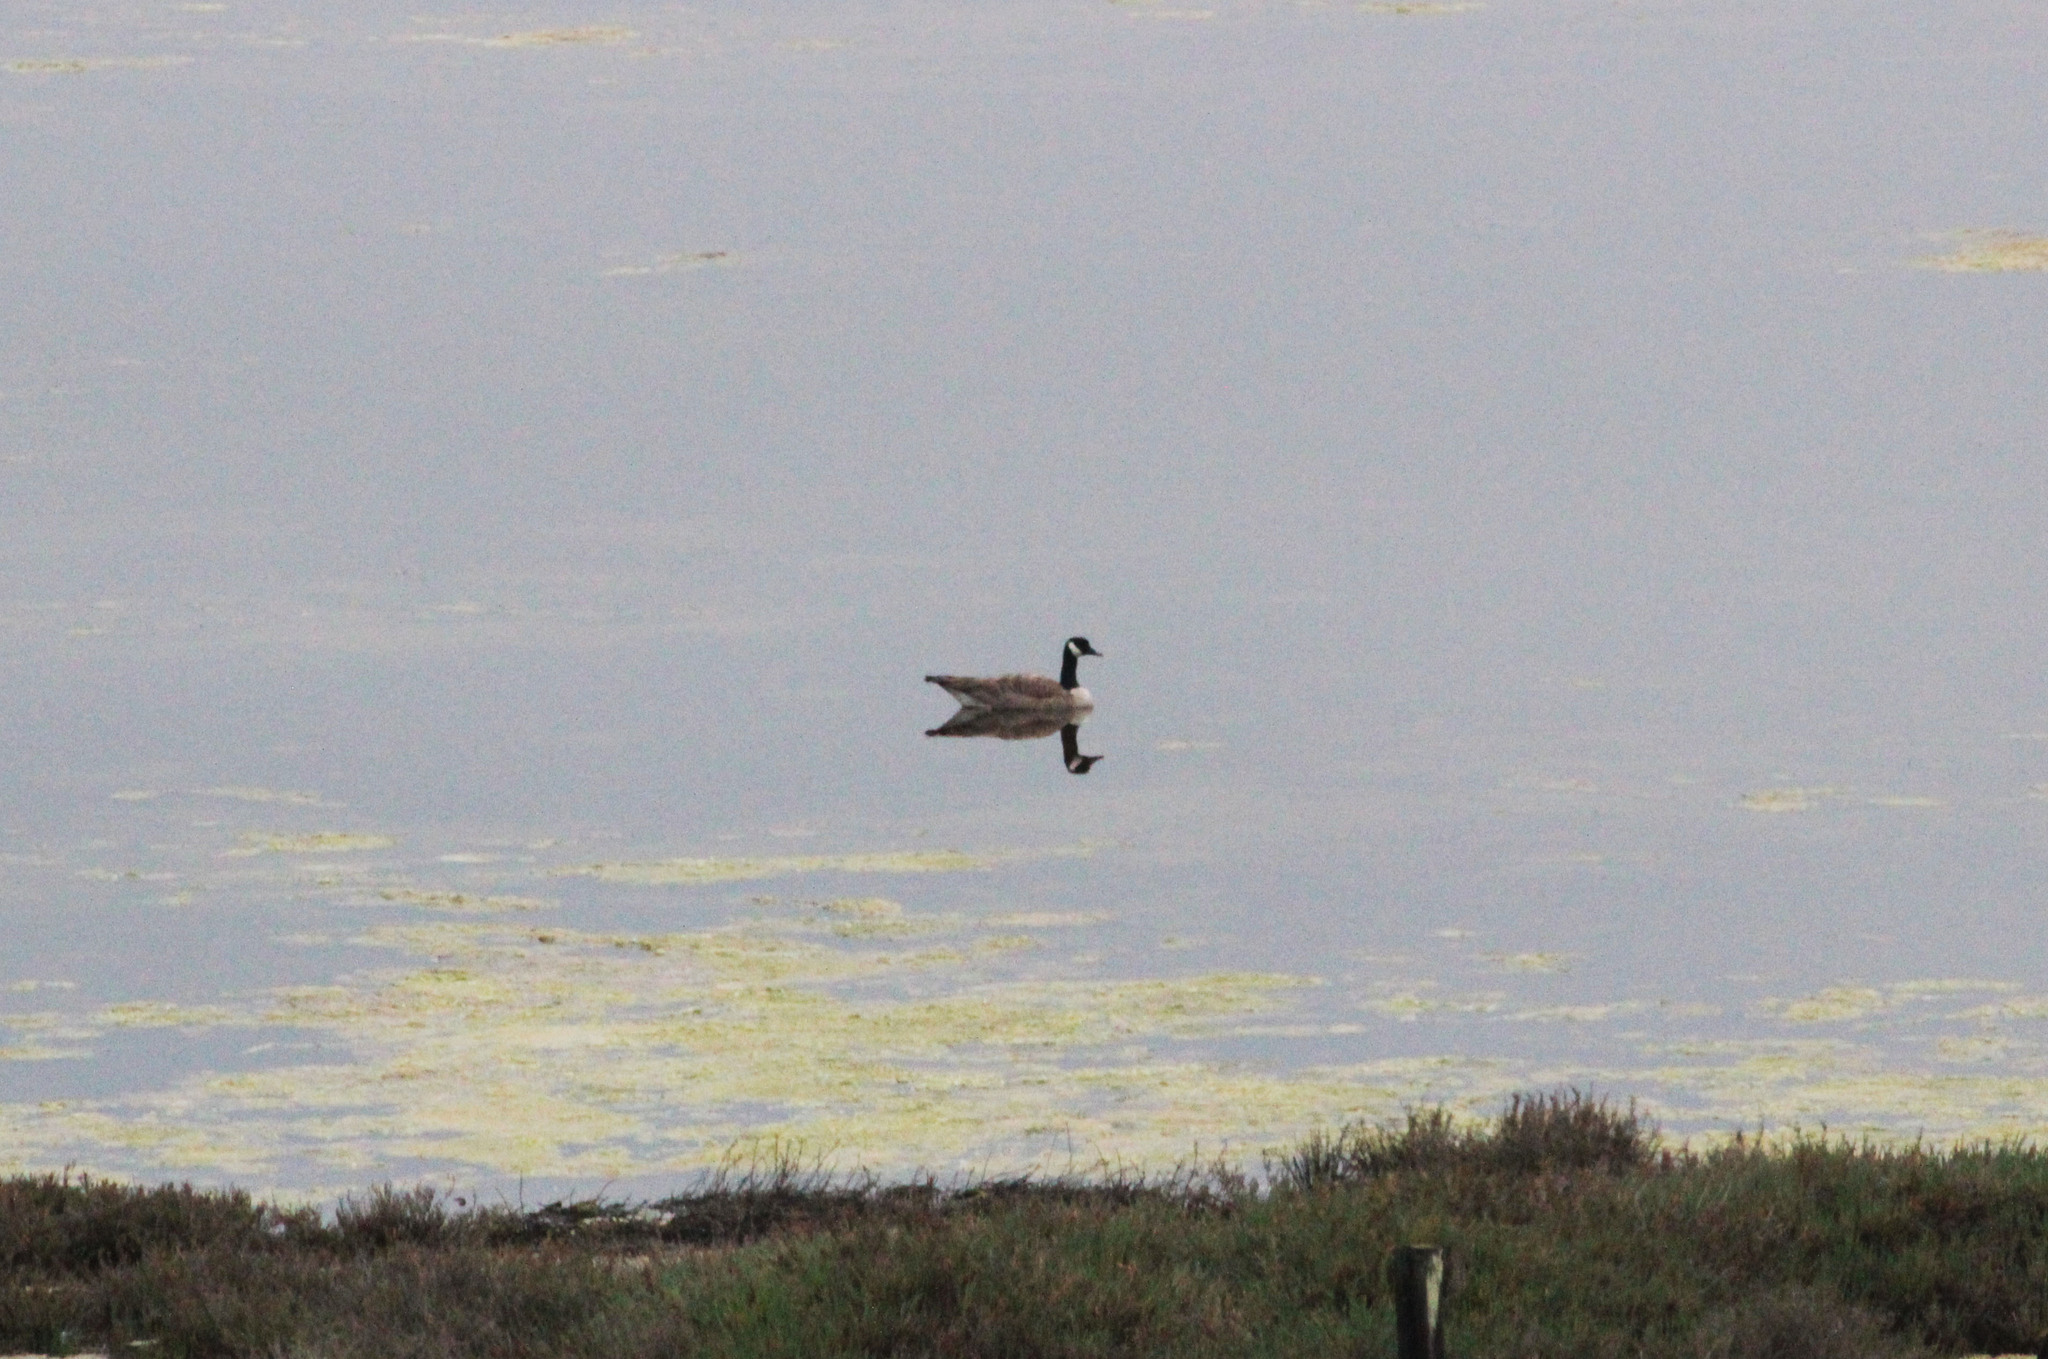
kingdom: Animalia
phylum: Chordata
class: Aves
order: Anseriformes
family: Anatidae
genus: Branta
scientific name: Branta canadensis
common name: Canada goose
